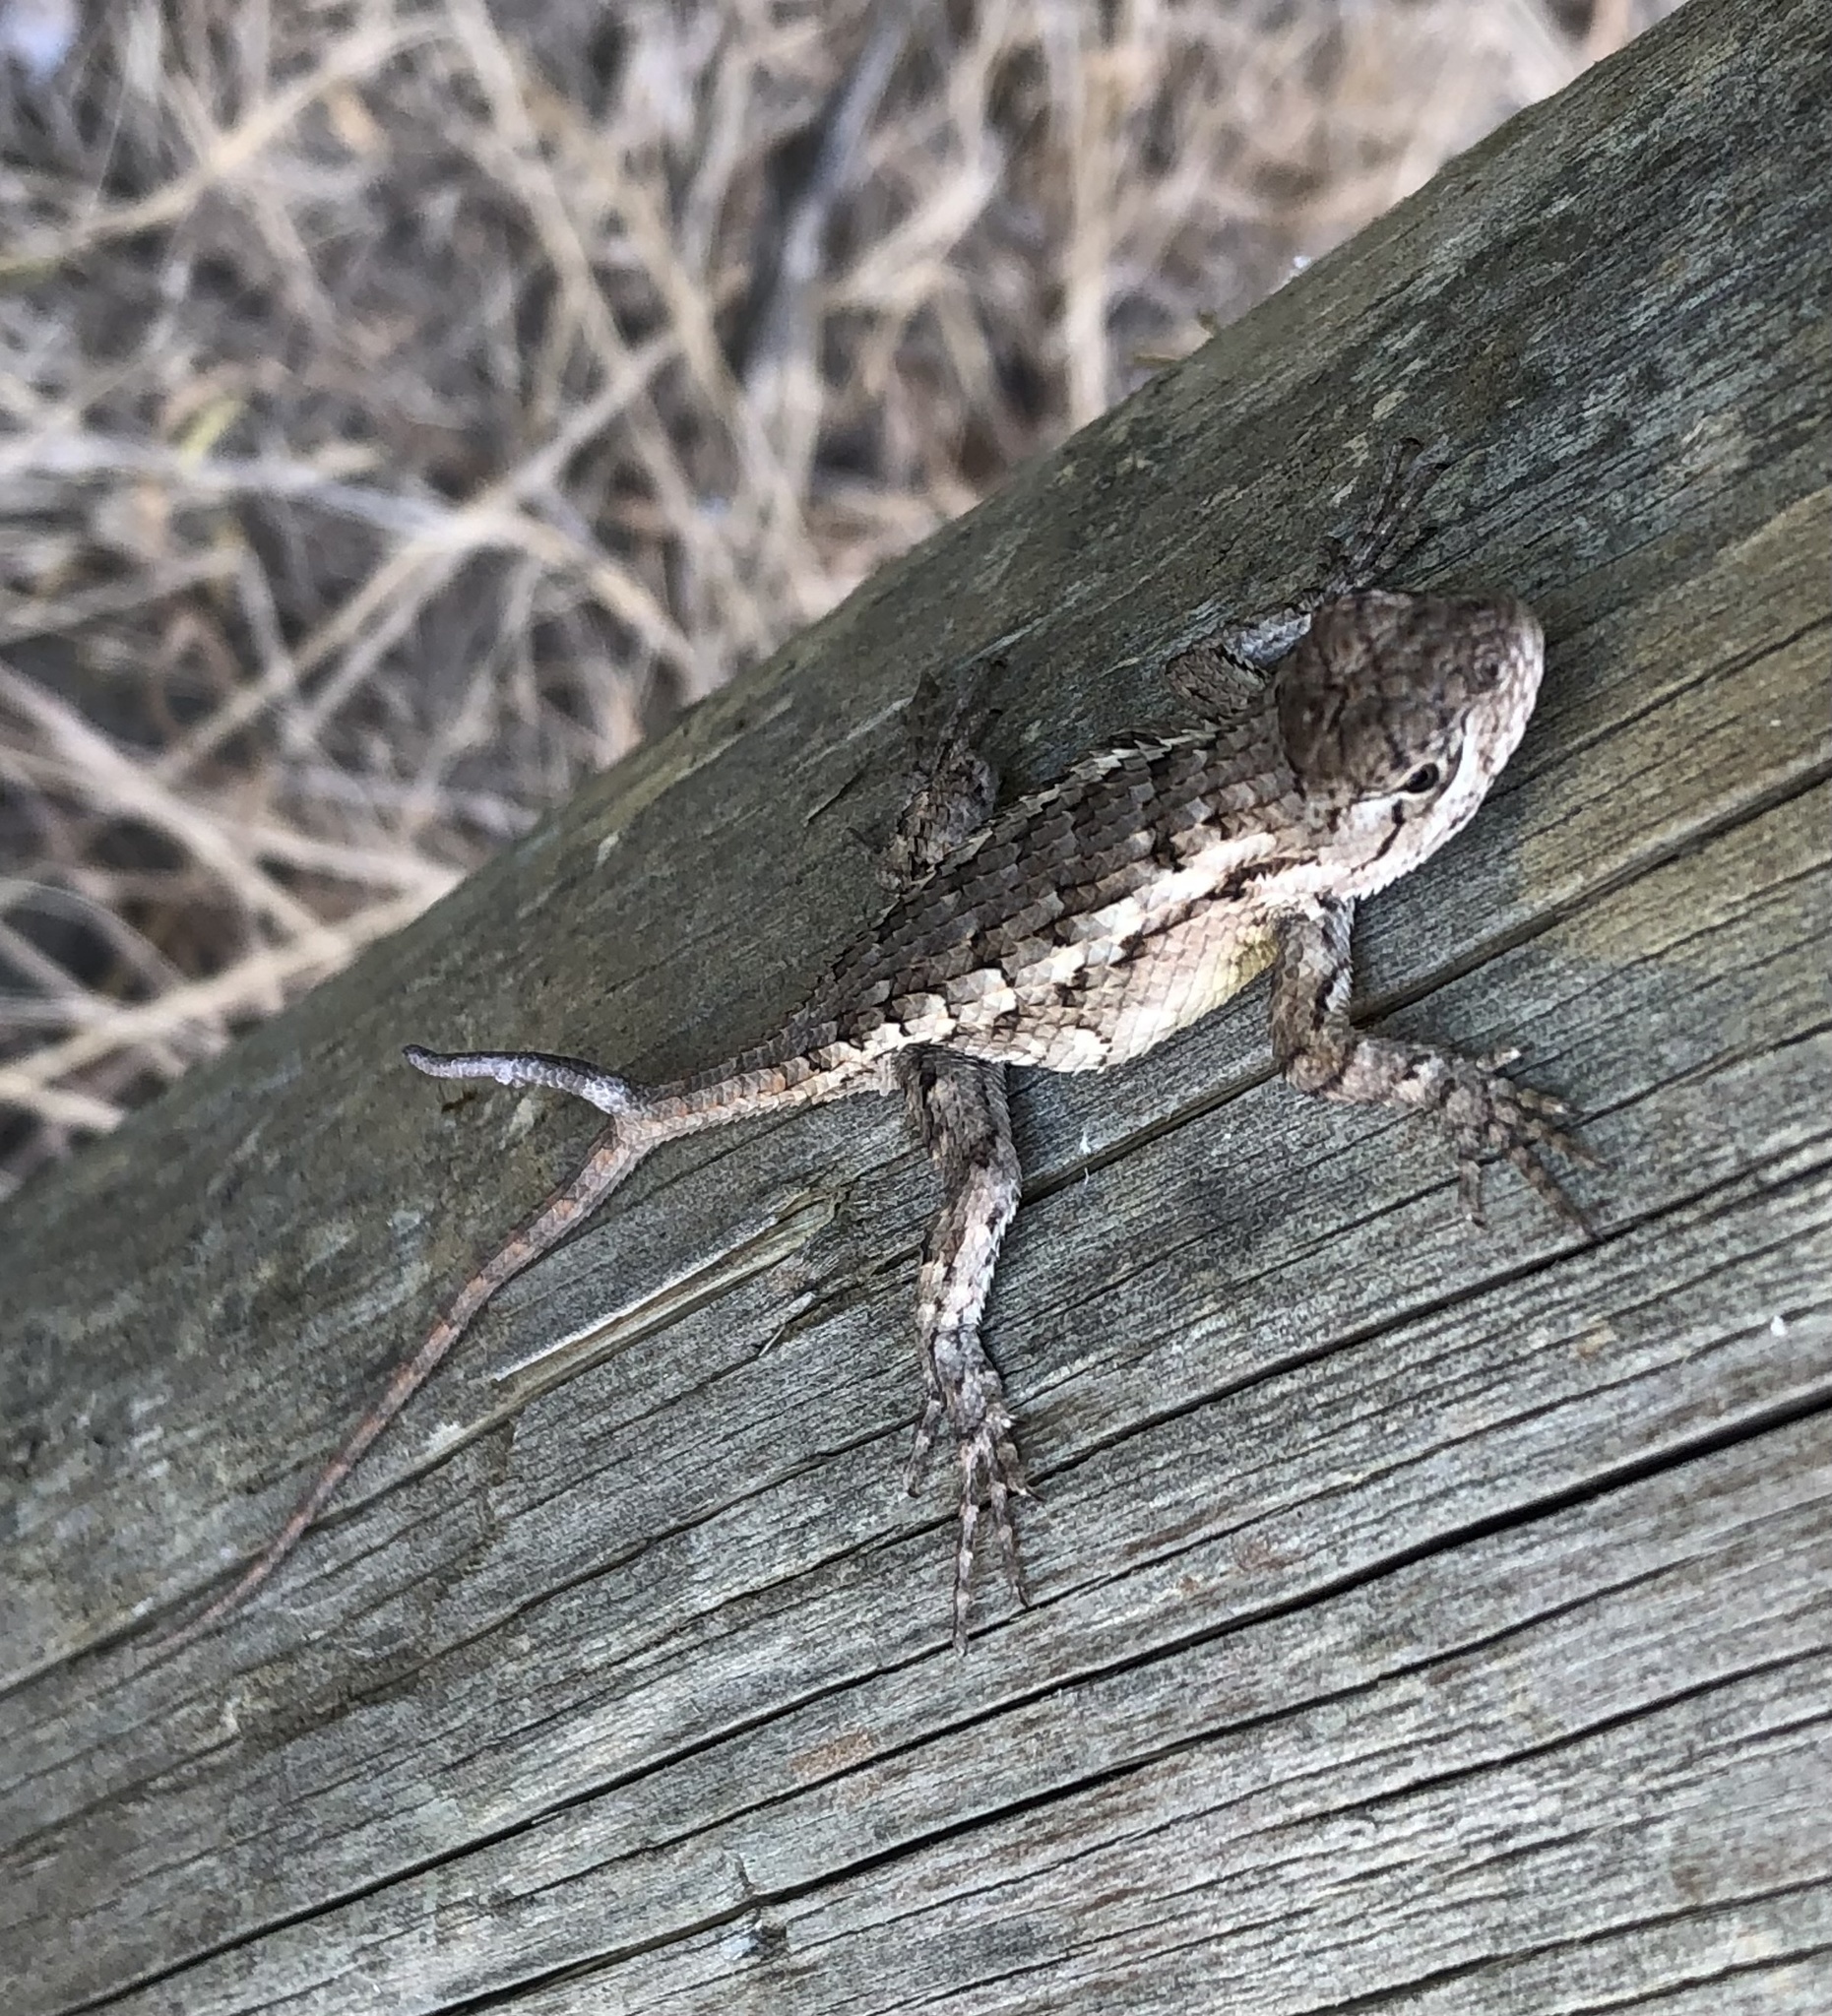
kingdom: Animalia
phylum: Chordata
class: Squamata
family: Phrynosomatidae
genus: Sceloporus
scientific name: Sceloporus olivaceus
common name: Texas spiny lizard
